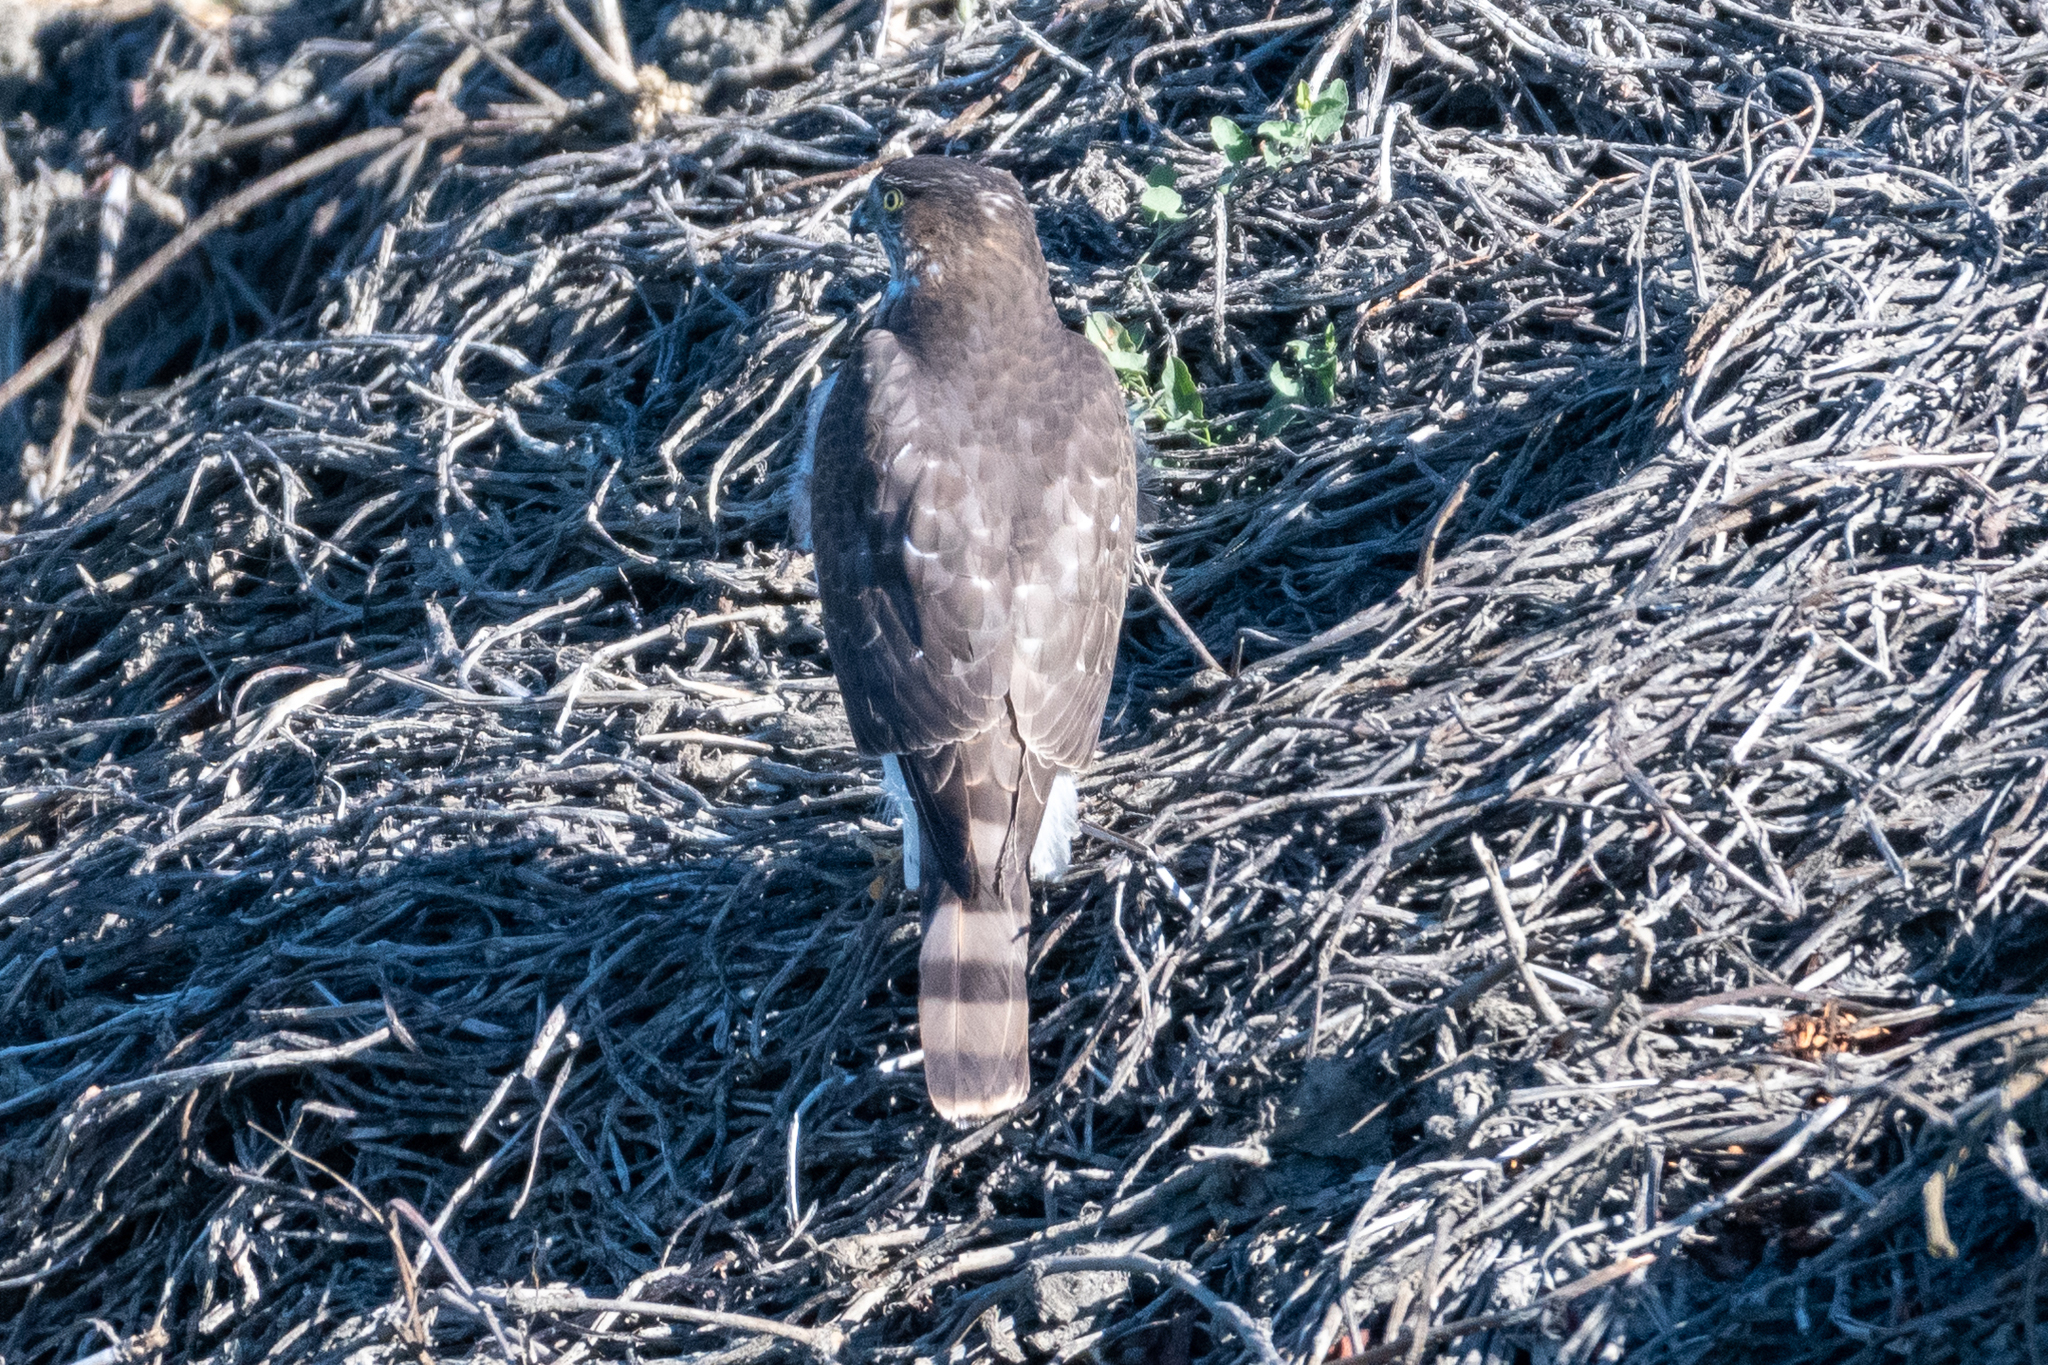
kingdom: Animalia
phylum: Chordata
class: Aves
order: Accipitriformes
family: Accipitridae
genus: Accipiter
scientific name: Accipiter striatus
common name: Sharp-shinned hawk
